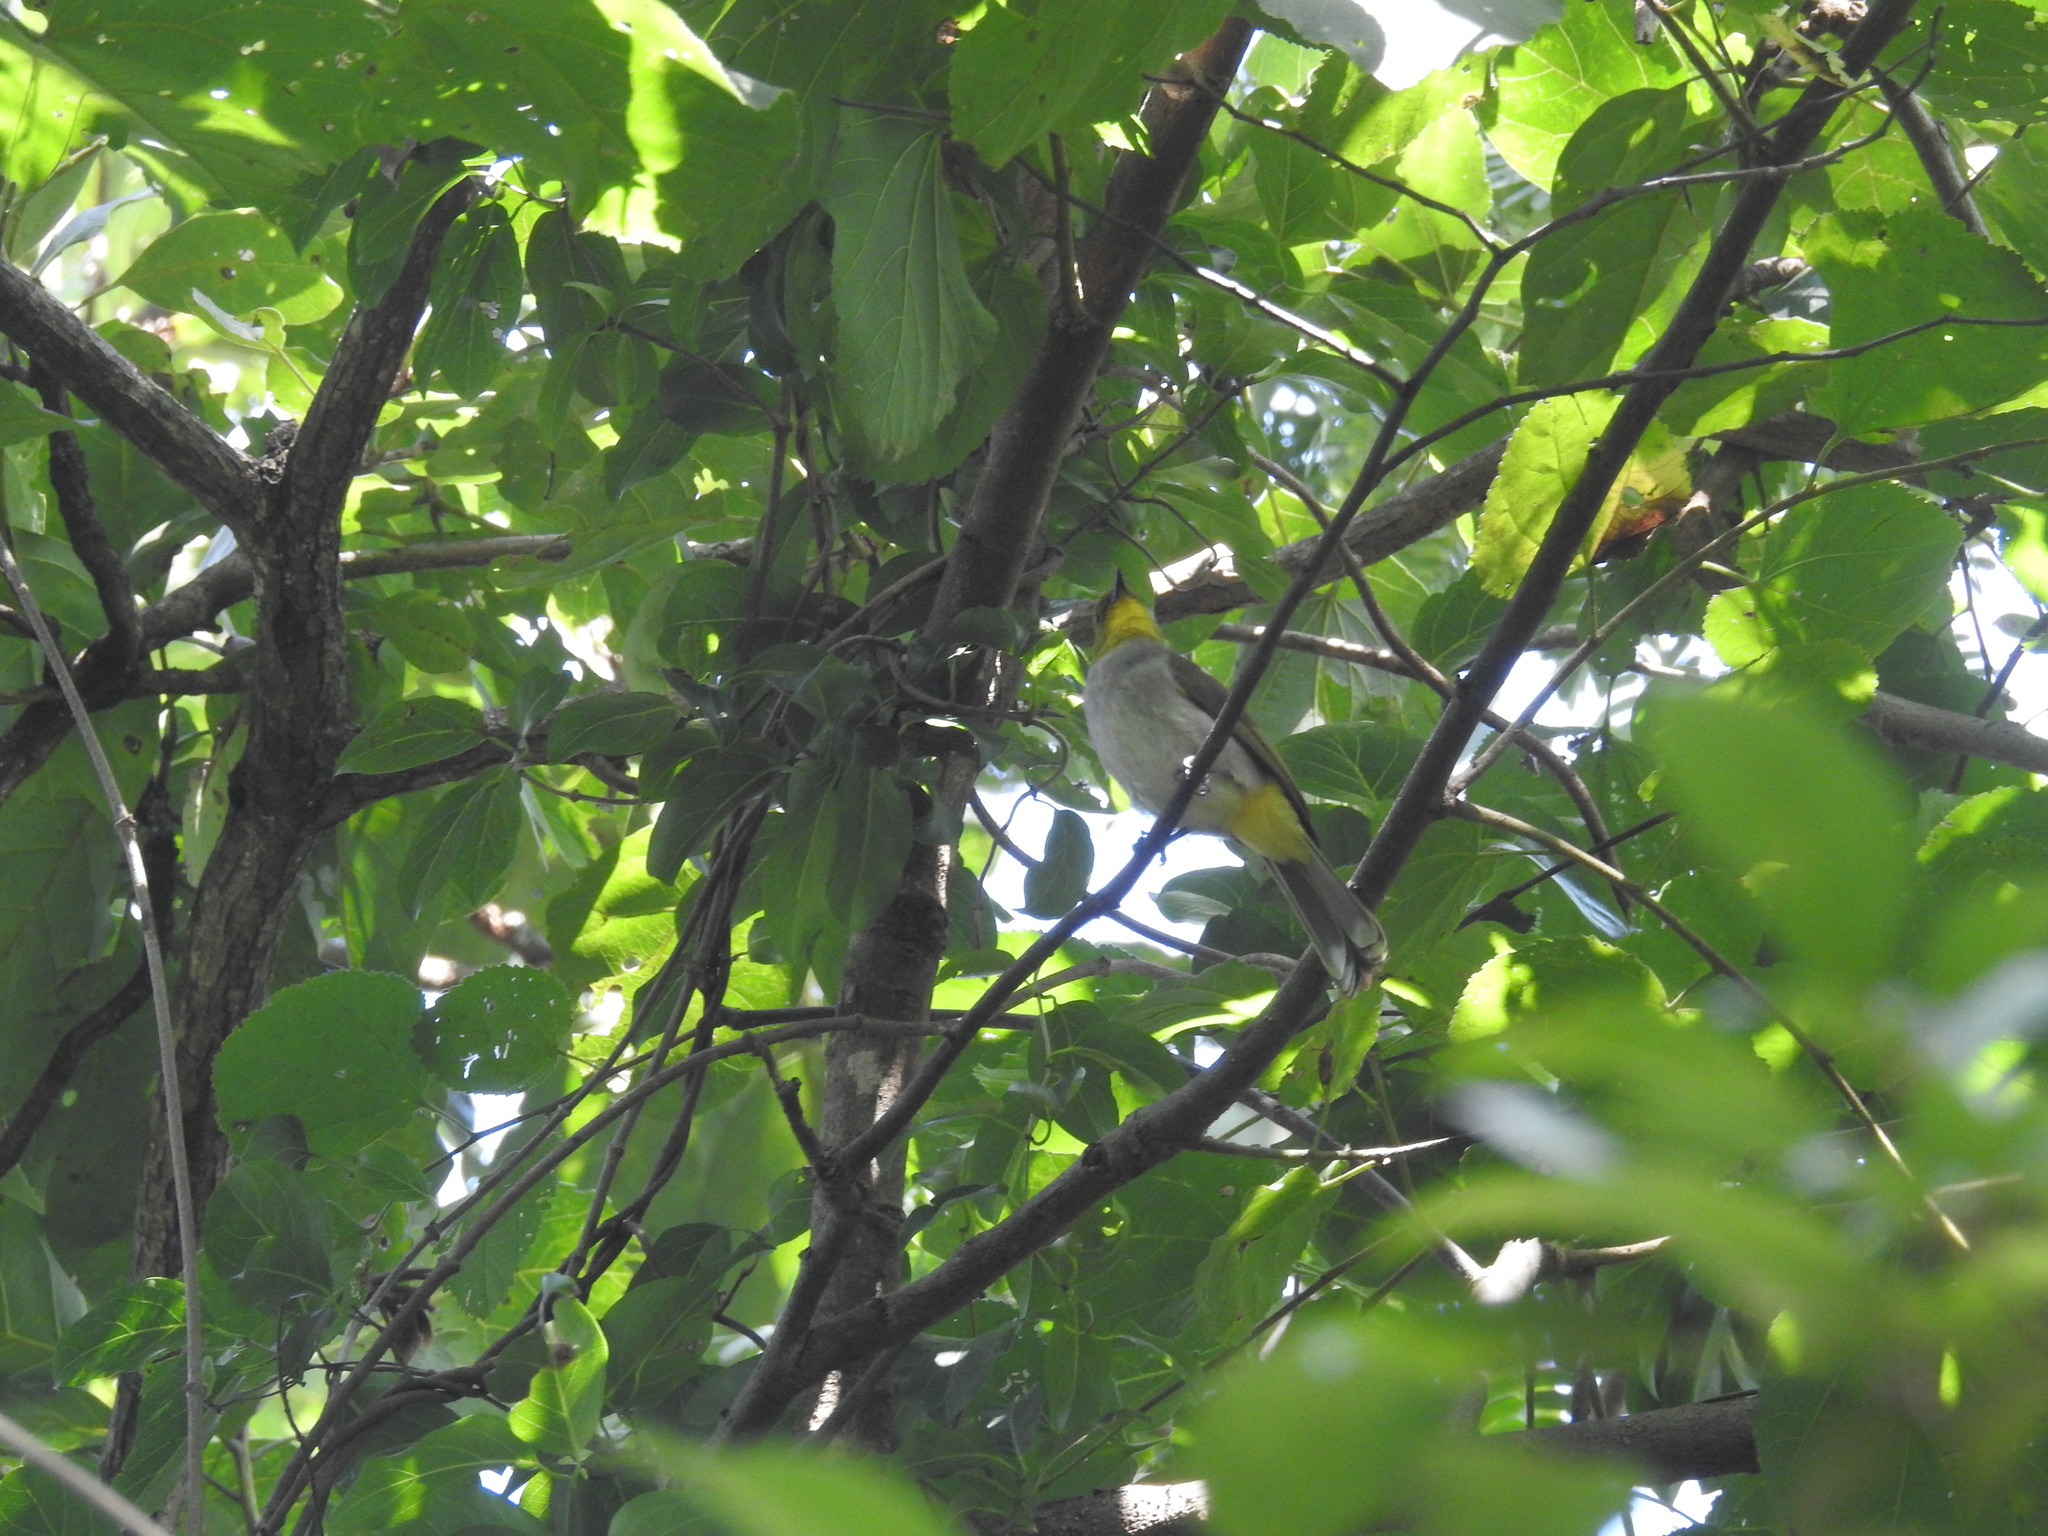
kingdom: Animalia
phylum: Chordata
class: Aves
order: Passeriformes
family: Pycnonotidae
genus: Pycnonotus
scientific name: Pycnonotus xantholaemus
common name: Yellow-throated bulbul
